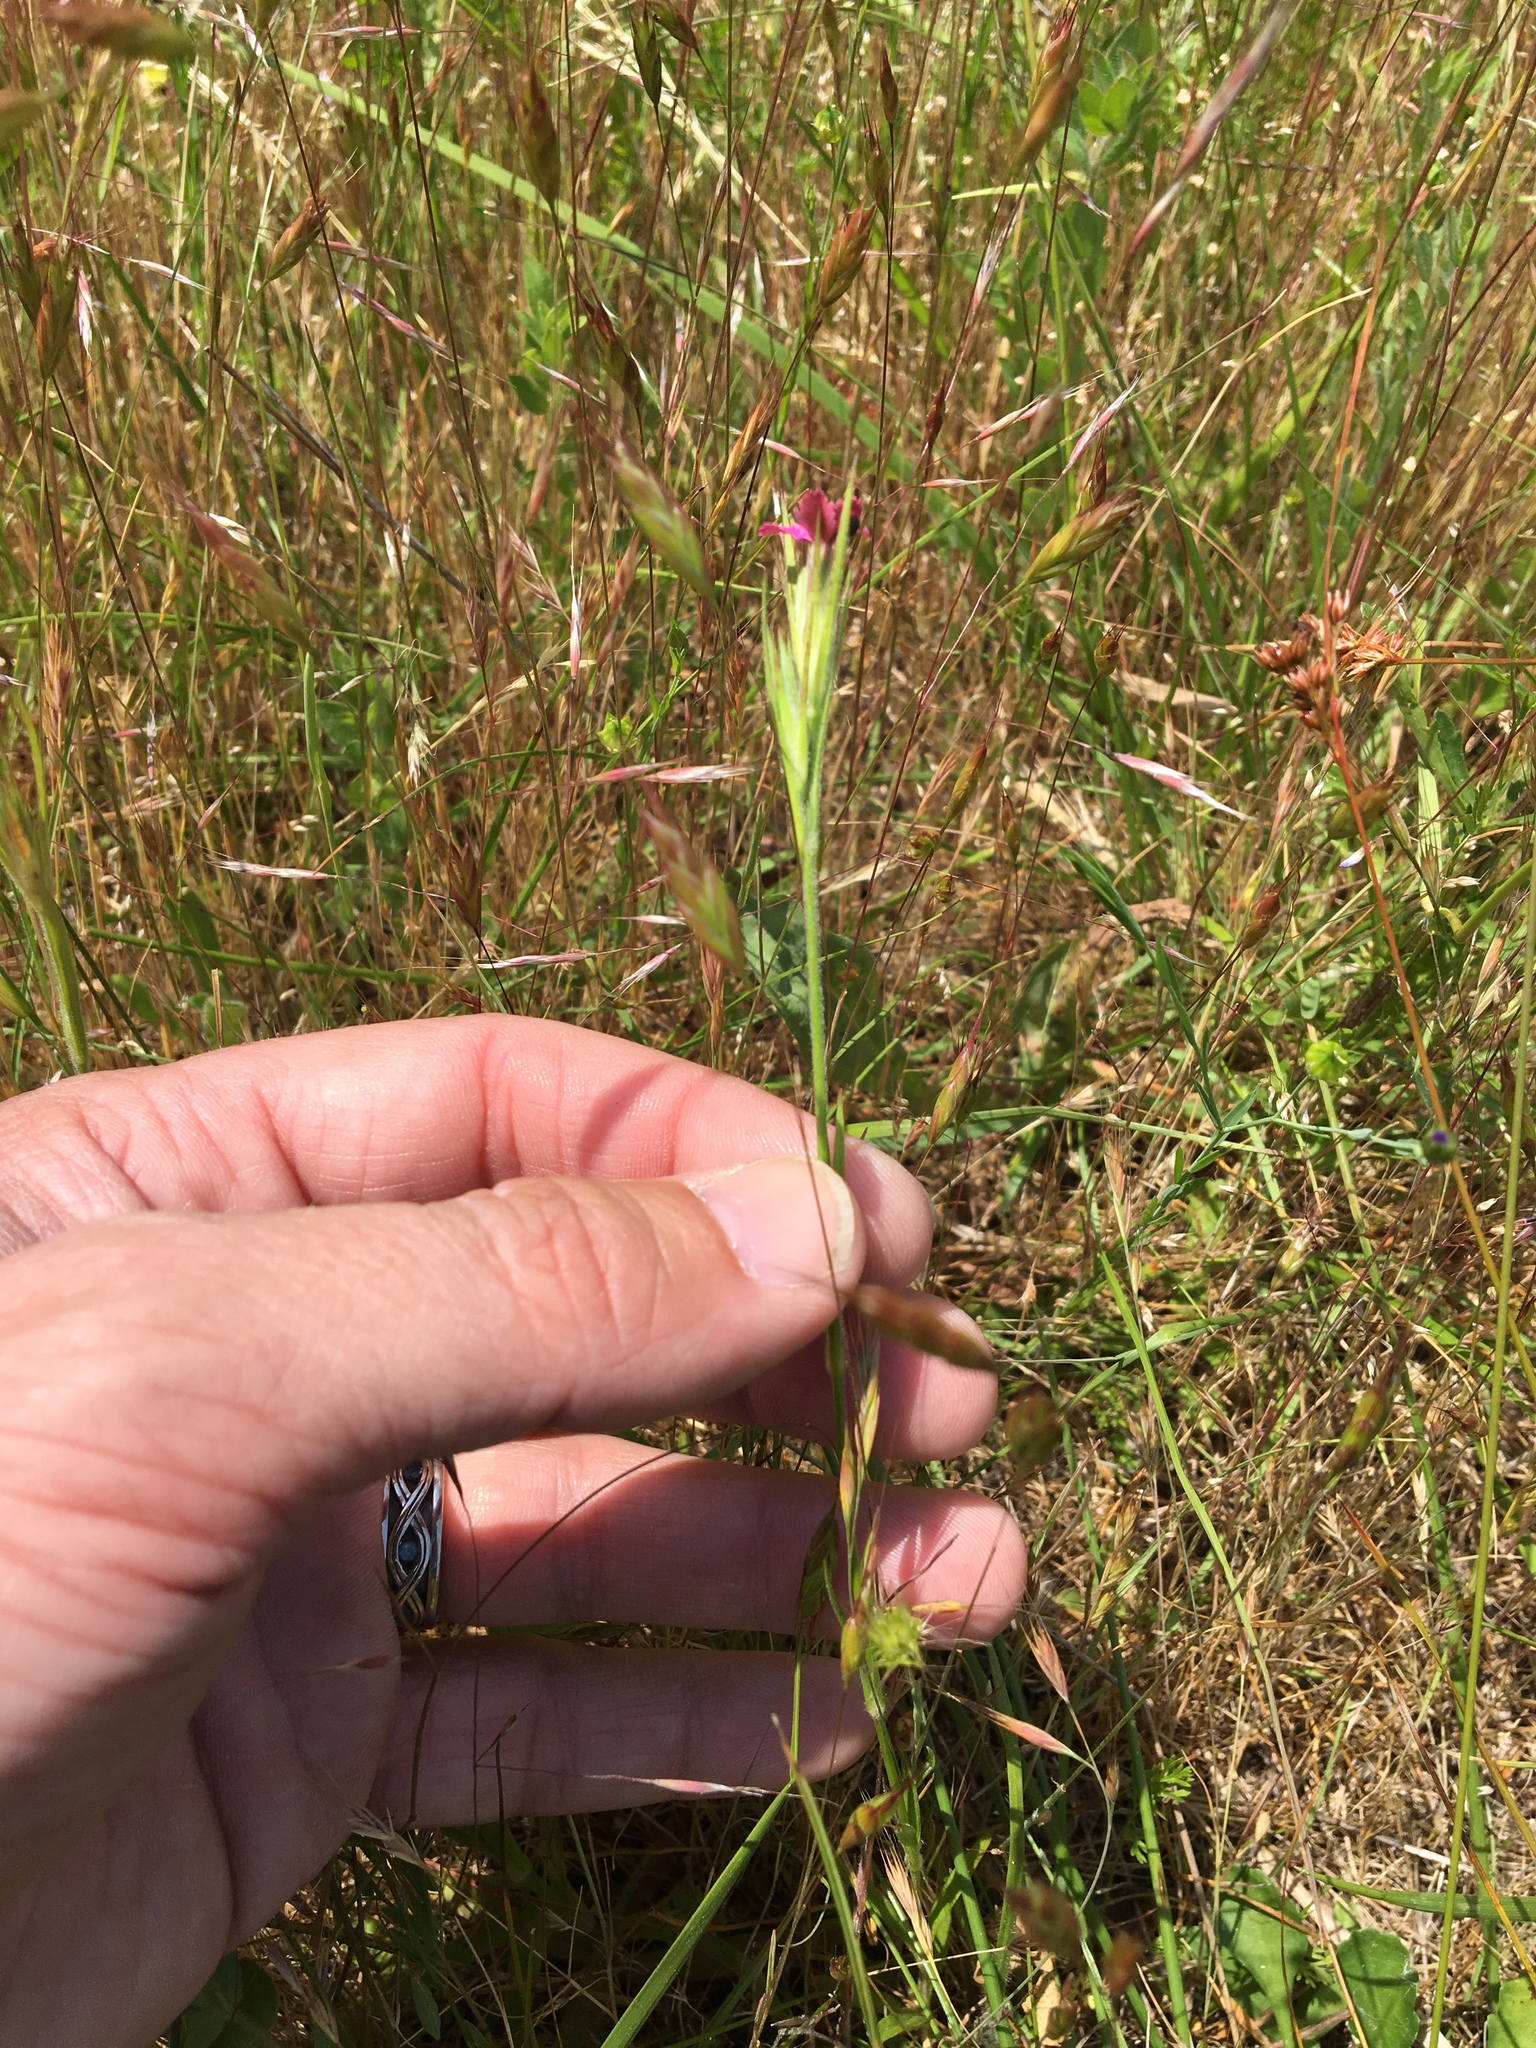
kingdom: Plantae
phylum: Tracheophyta
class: Magnoliopsida
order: Caryophyllales
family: Caryophyllaceae
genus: Dianthus
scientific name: Dianthus armeria
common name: Deptford pink
